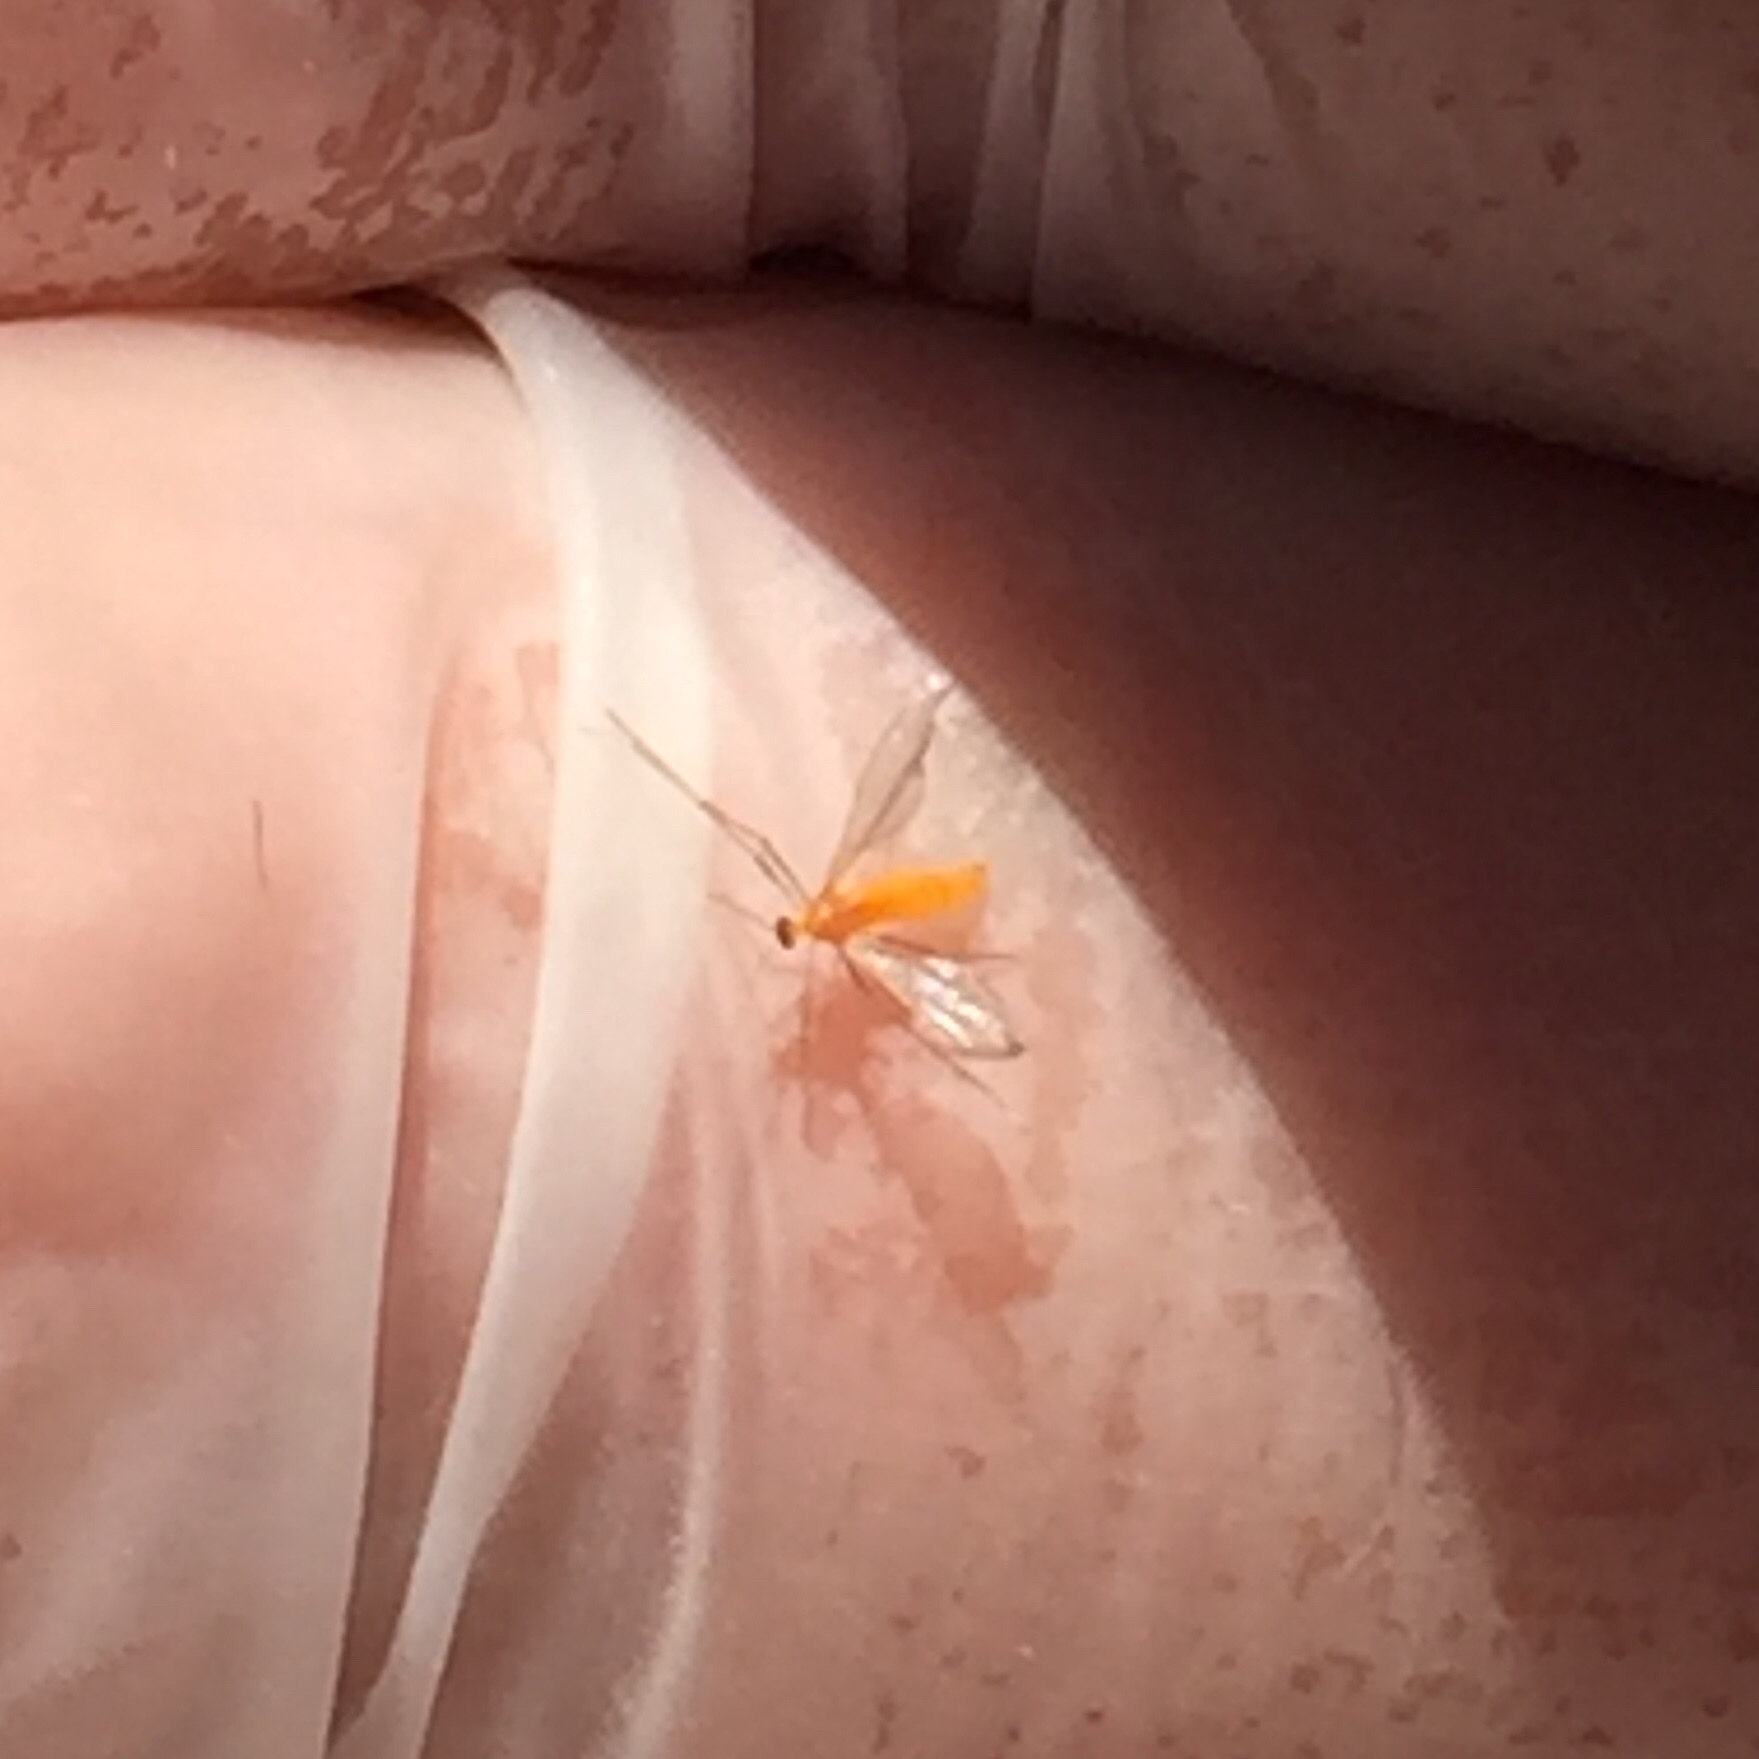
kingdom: Animalia
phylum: Arthropoda
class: Insecta
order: Diptera
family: Cecidomyiidae
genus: Monarthropalpus
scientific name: Monarthropalpus flavus
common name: Boxwood leafminer
